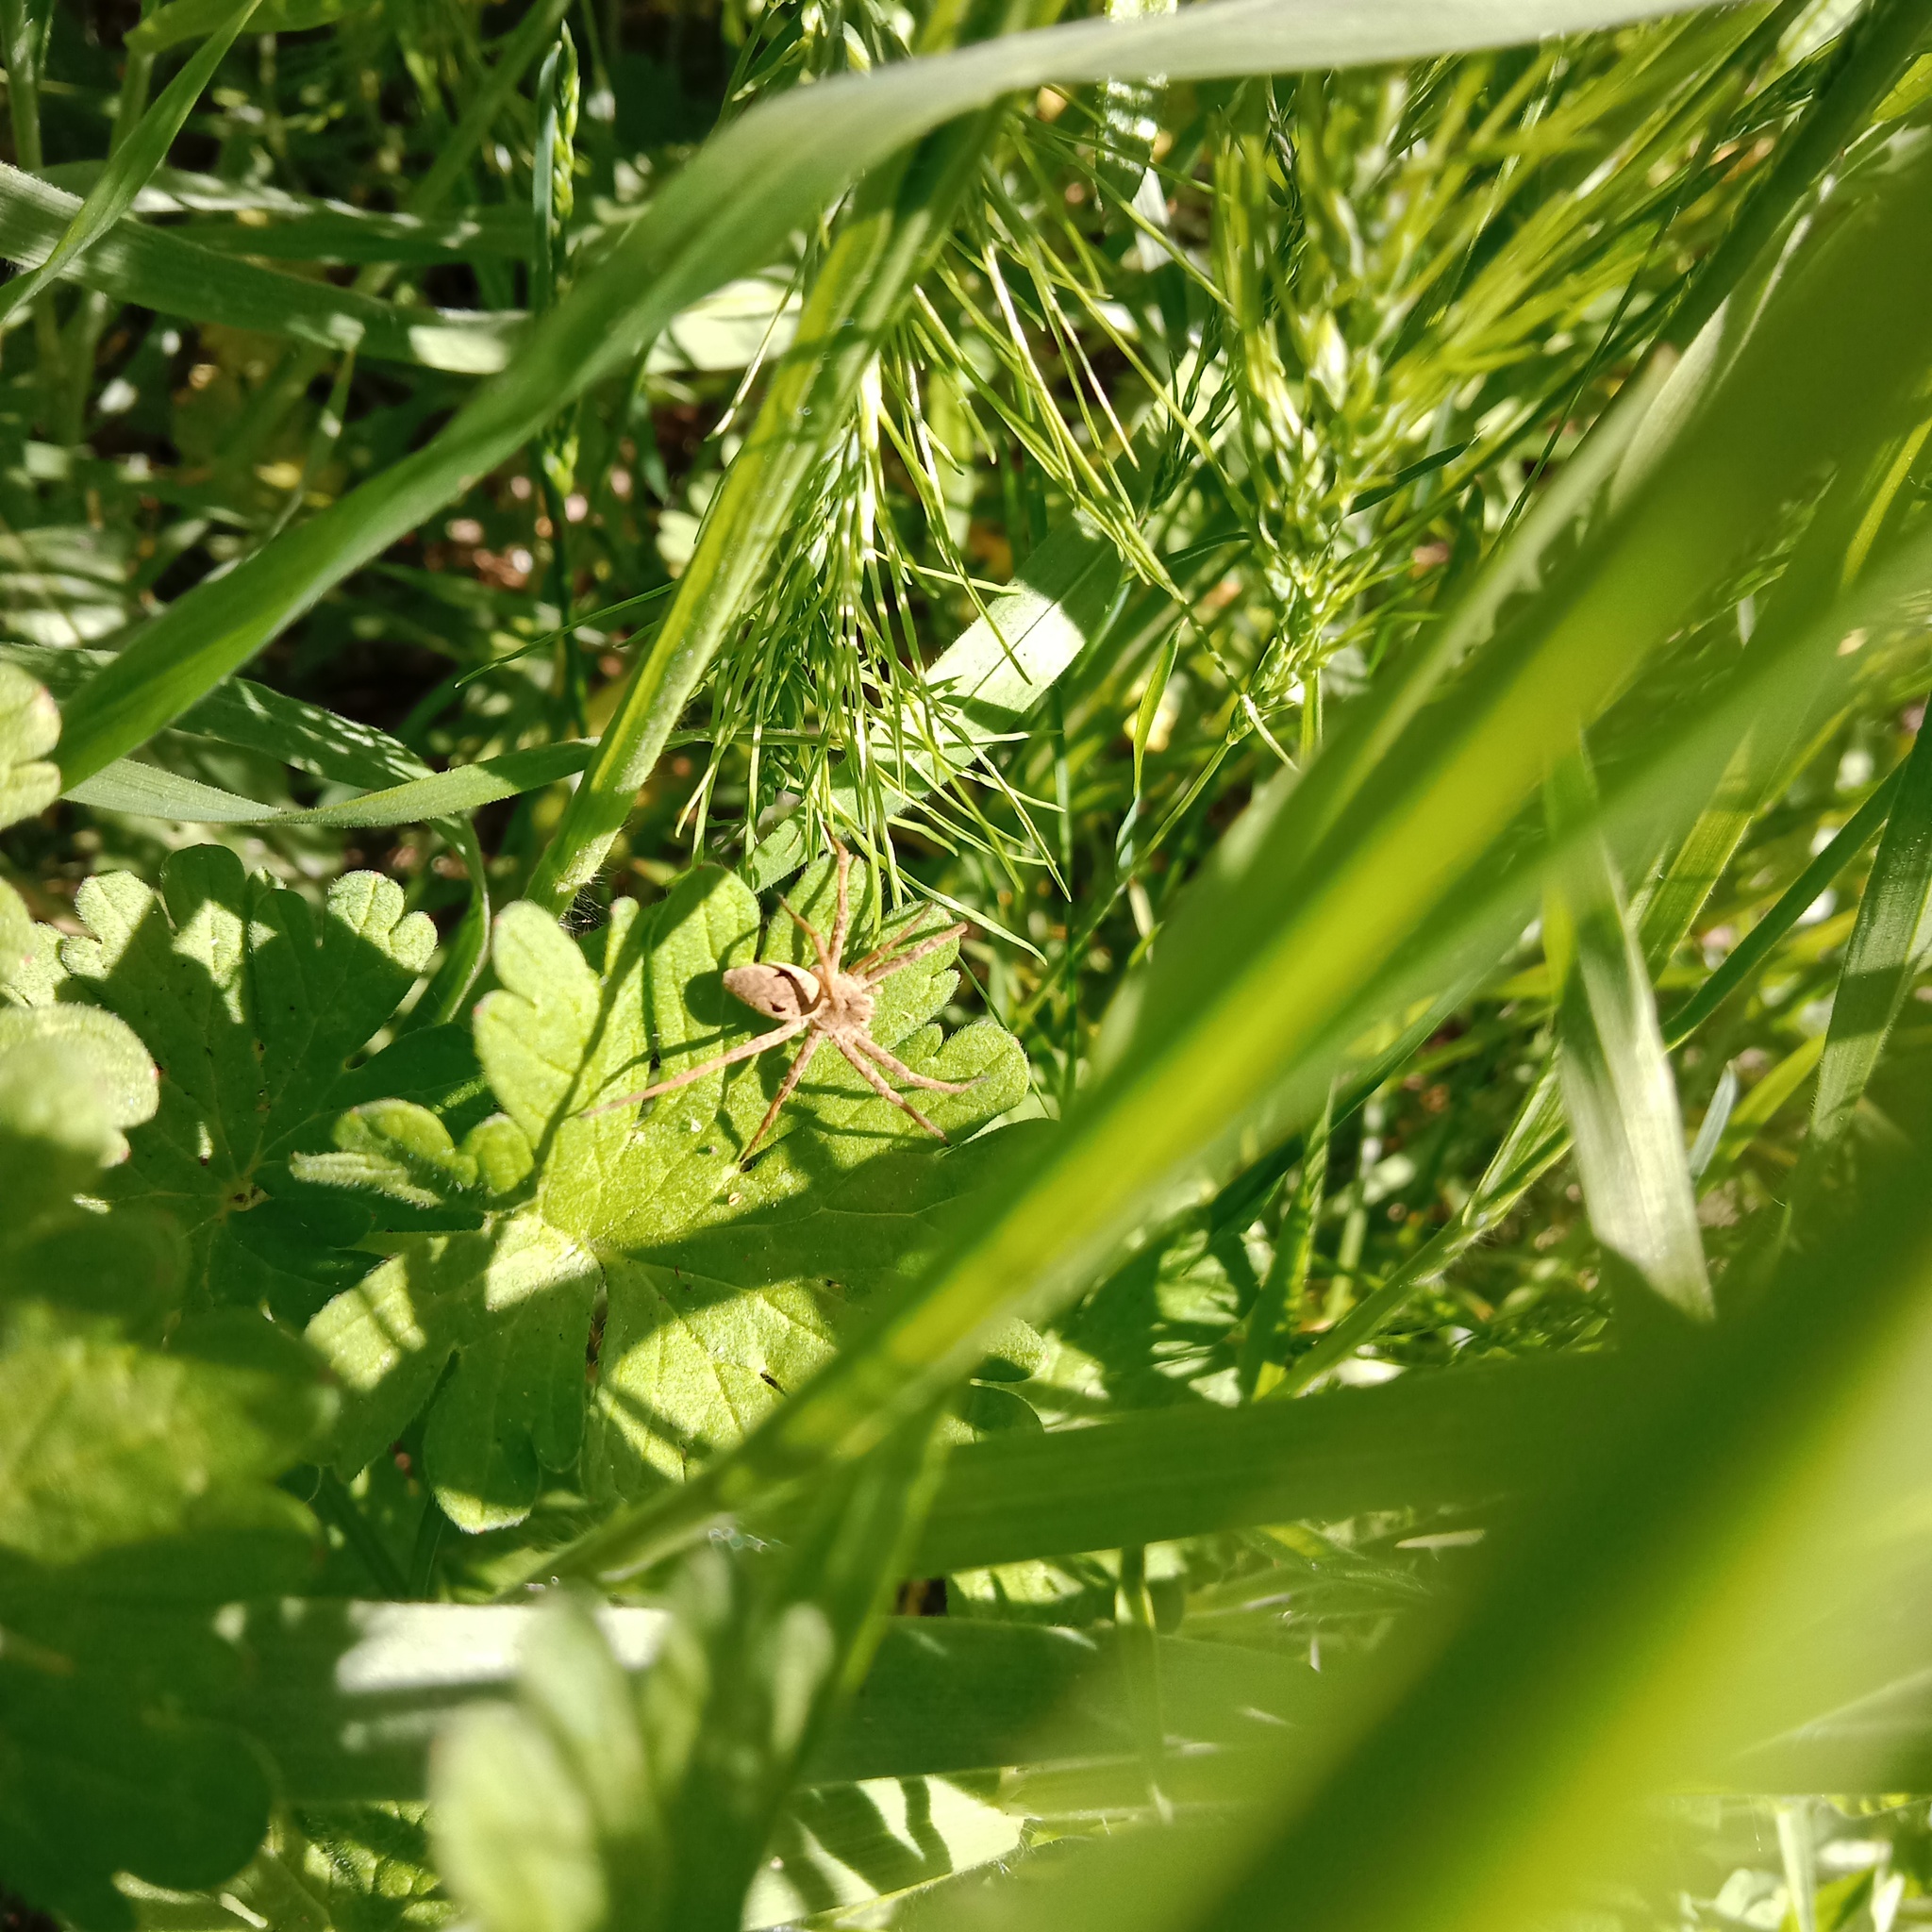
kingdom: Animalia
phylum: Arthropoda
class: Arachnida
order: Araneae
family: Pisauridae
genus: Pisaura
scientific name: Pisaura
